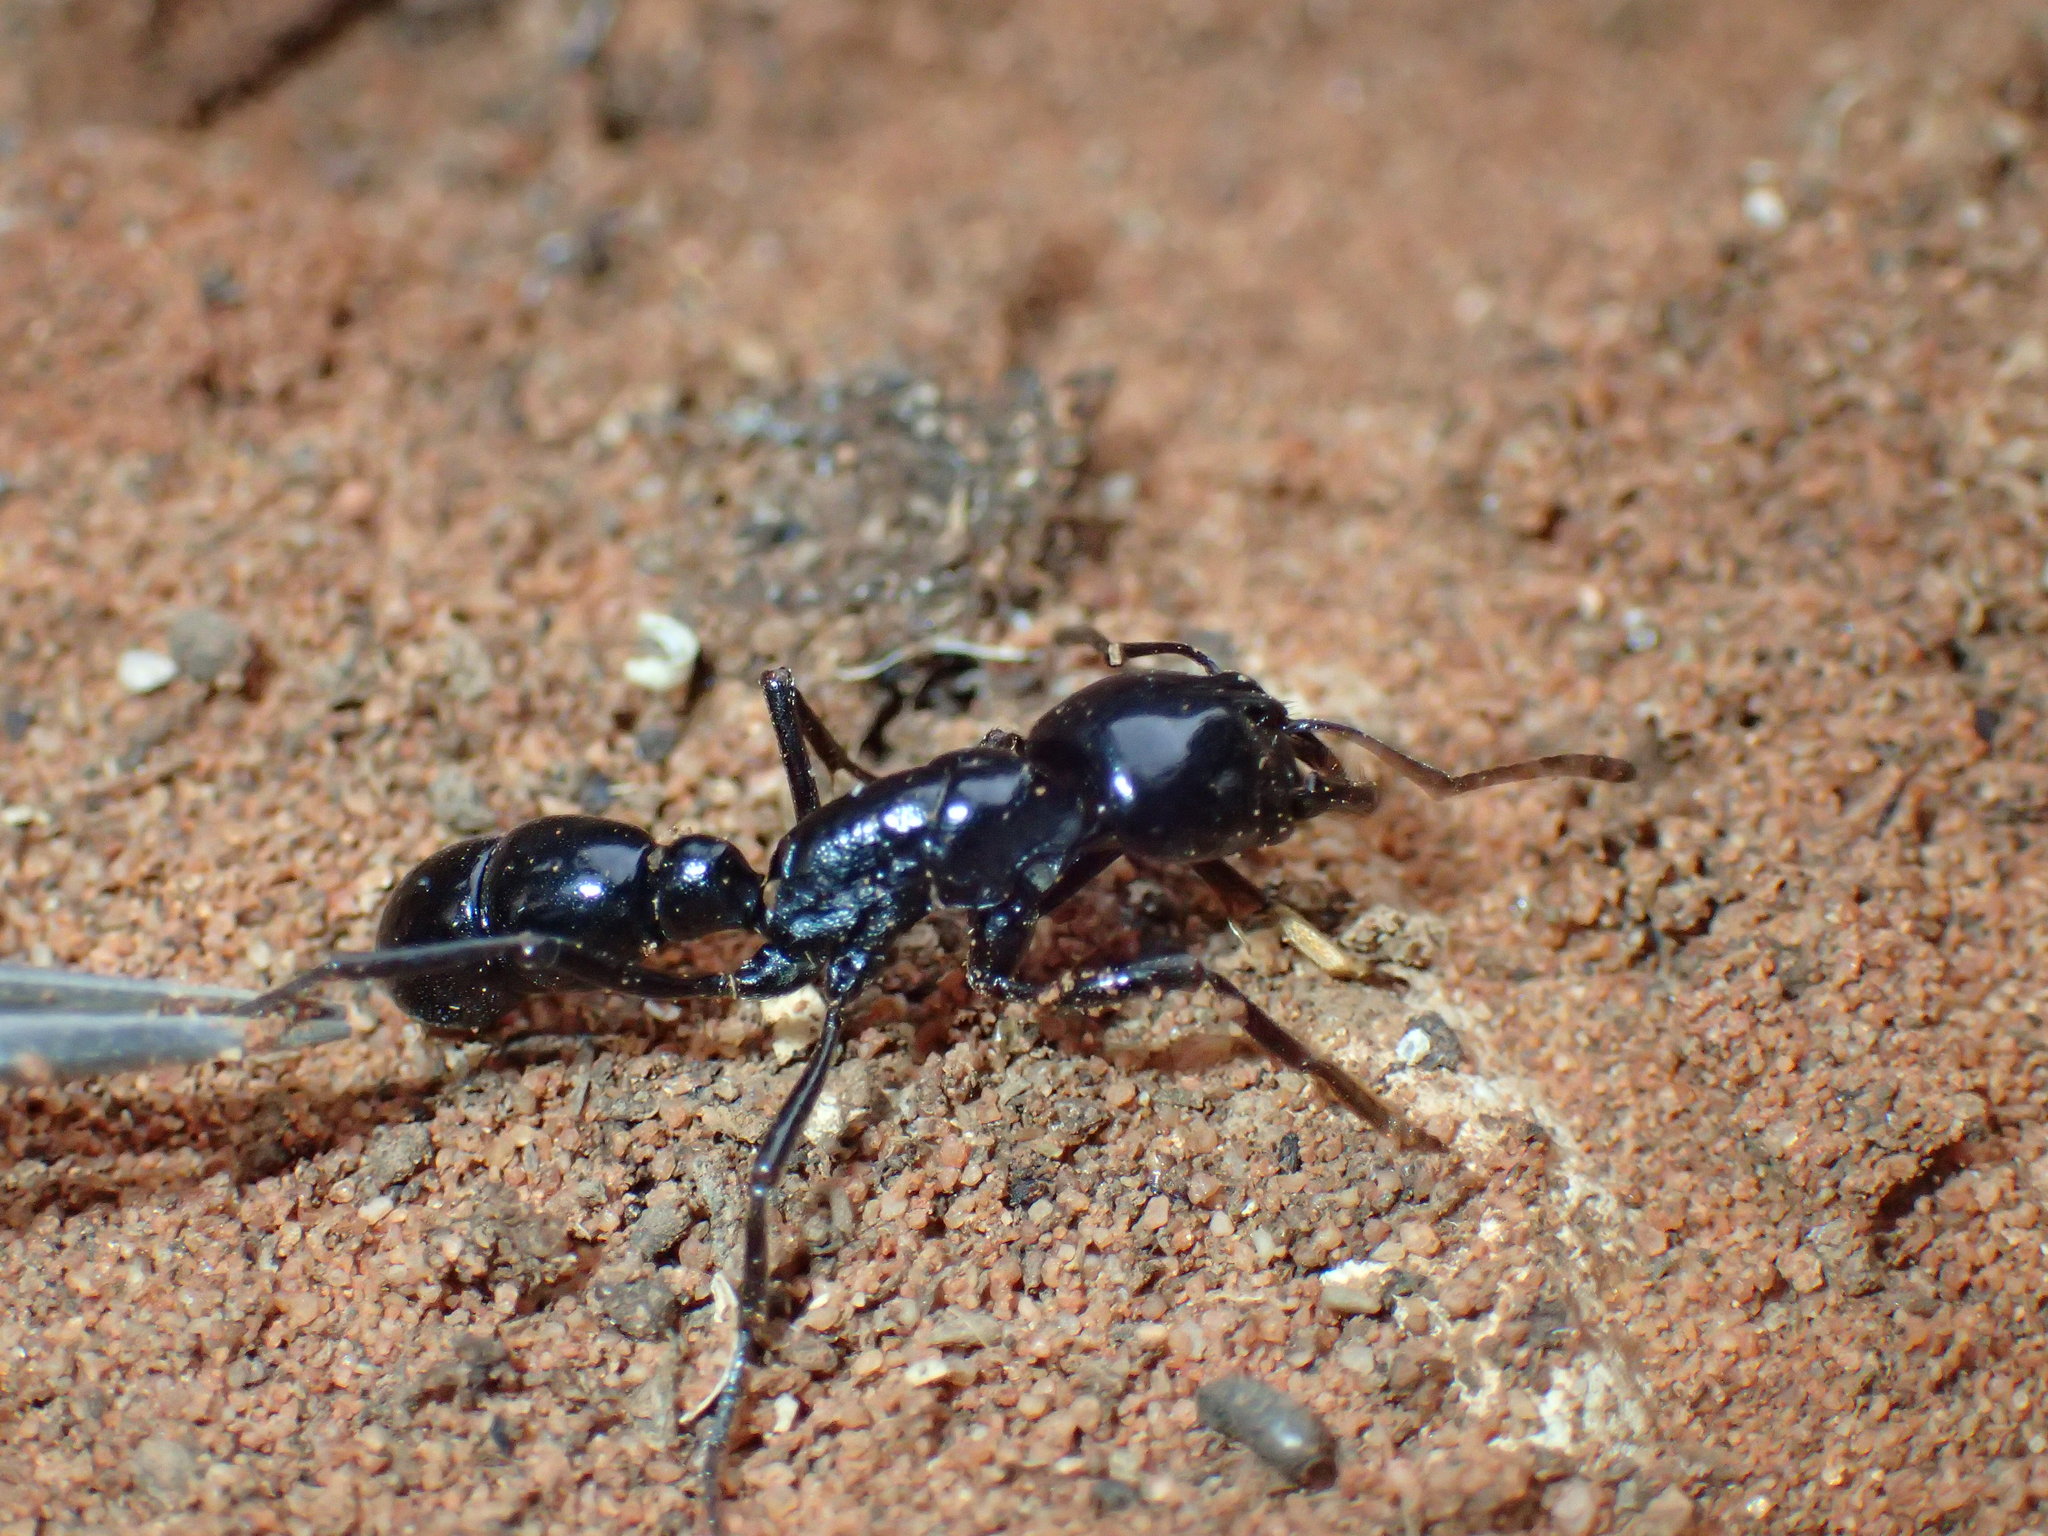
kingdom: Animalia
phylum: Arthropoda
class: Insecta
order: Hymenoptera
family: Formicidae
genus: Plectroctena
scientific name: Plectroctena mandibularis
